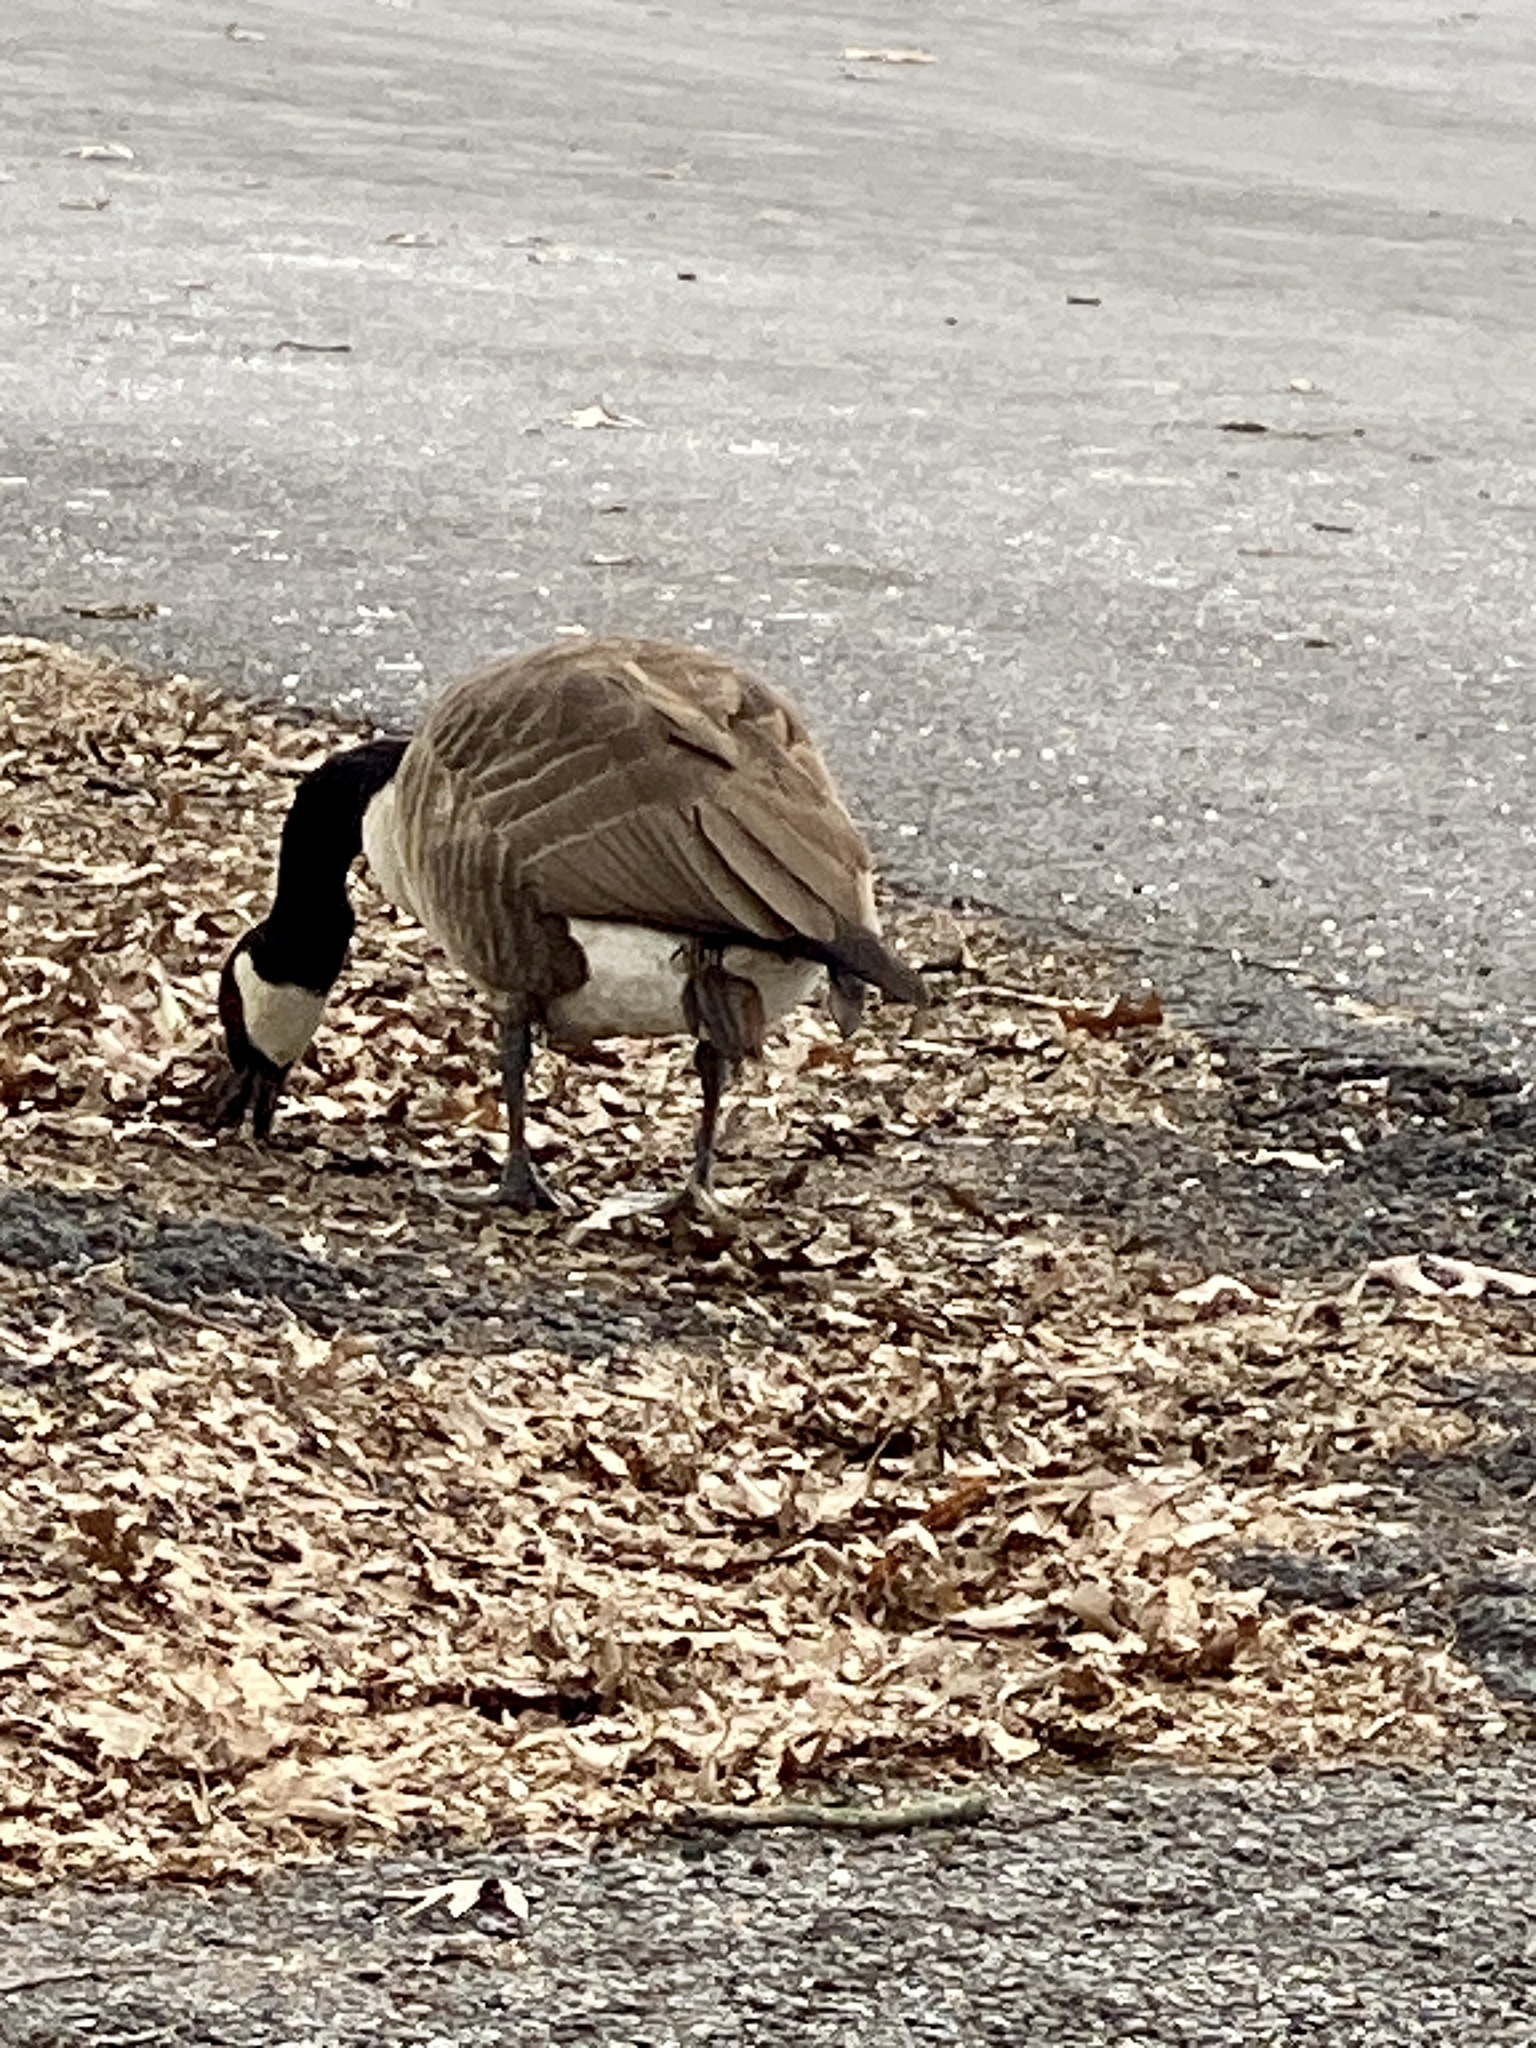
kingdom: Animalia
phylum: Chordata
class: Aves
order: Anseriformes
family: Anatidae
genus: Branta
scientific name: Branta canadensis
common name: Canada goose
